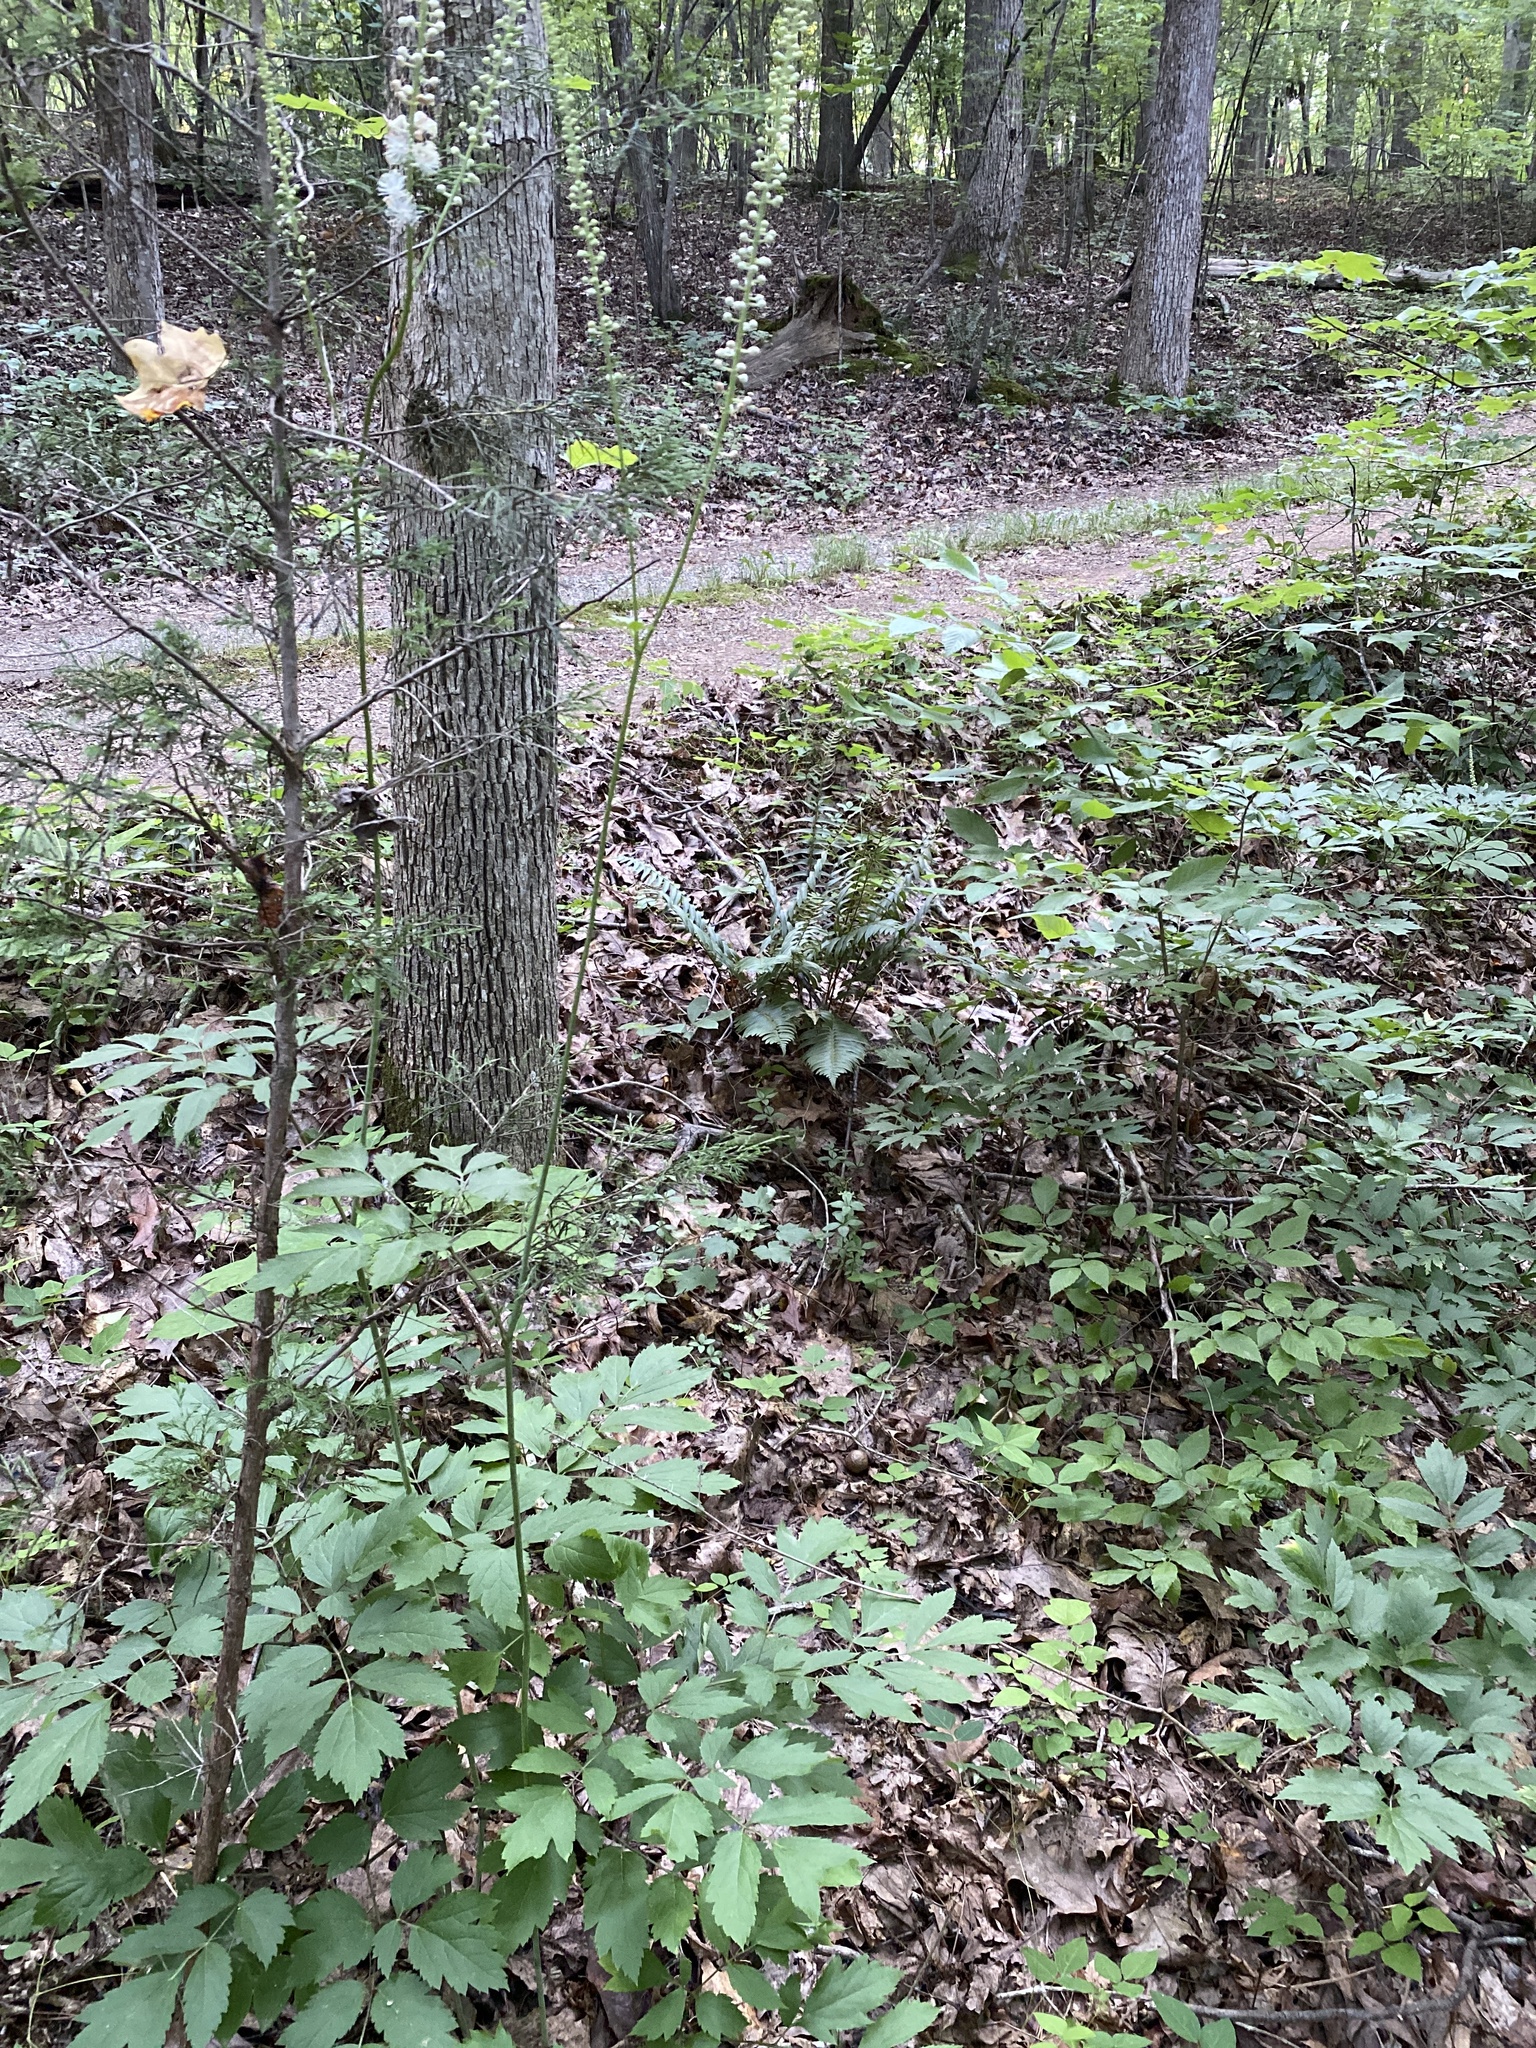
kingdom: Plantae
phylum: Tracheophyta
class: Magnoliopsida
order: Ranunculales
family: Ranunculaceae
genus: Actaea
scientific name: Actaea racemosa
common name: Black cohosh
